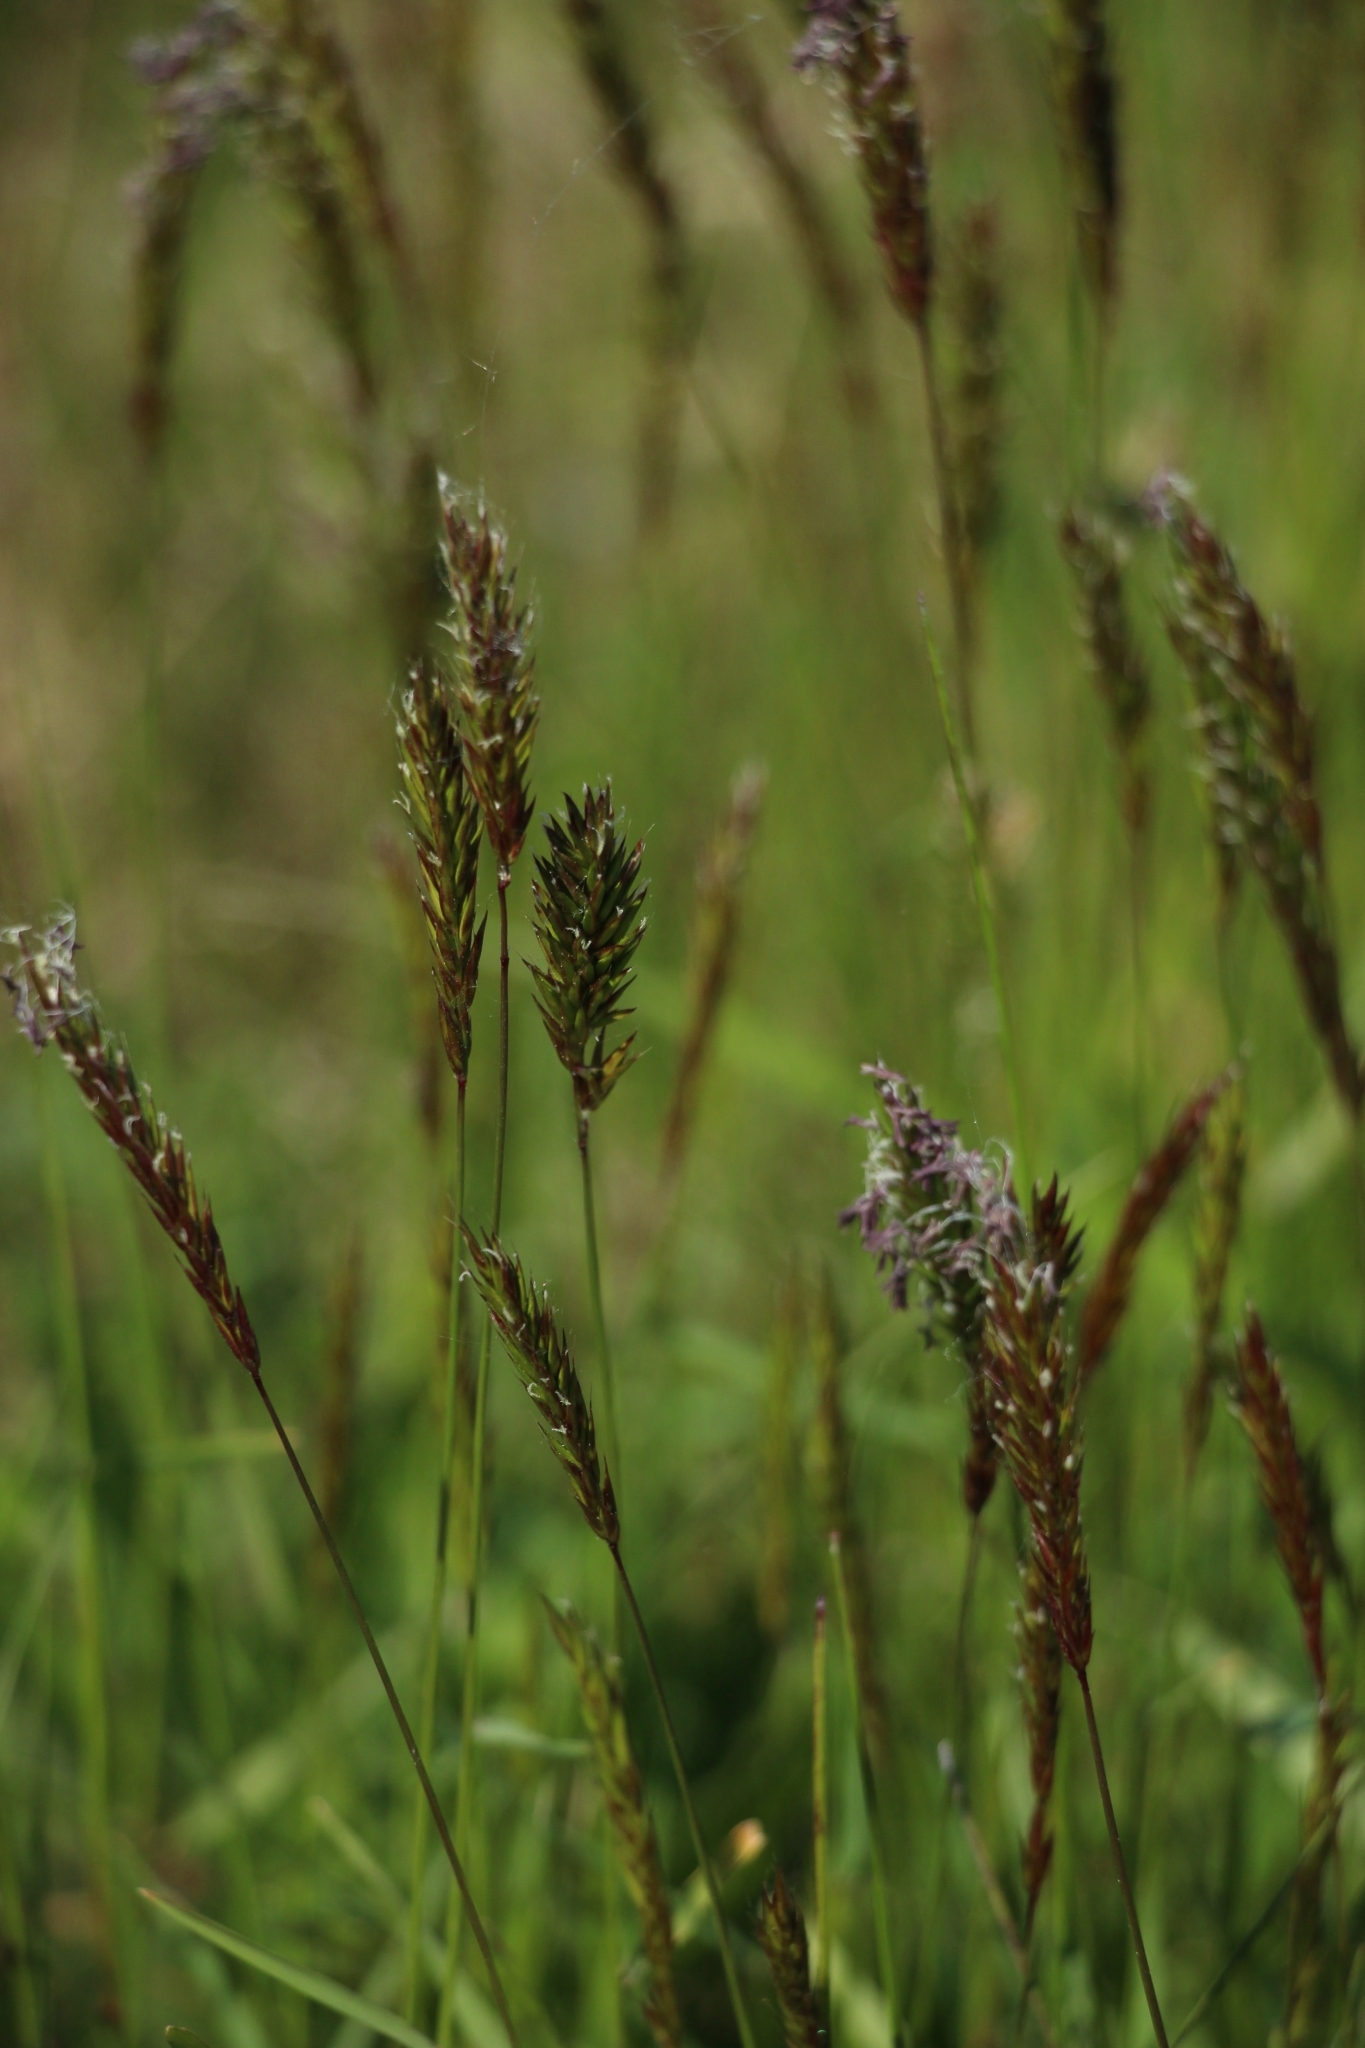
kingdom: Plantae
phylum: Tracheophyta
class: Liliopsida
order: Poales
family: Poaceae
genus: Anthoxanthum
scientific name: Anthoxanthum odoratum
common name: Sweet vernalgrass
